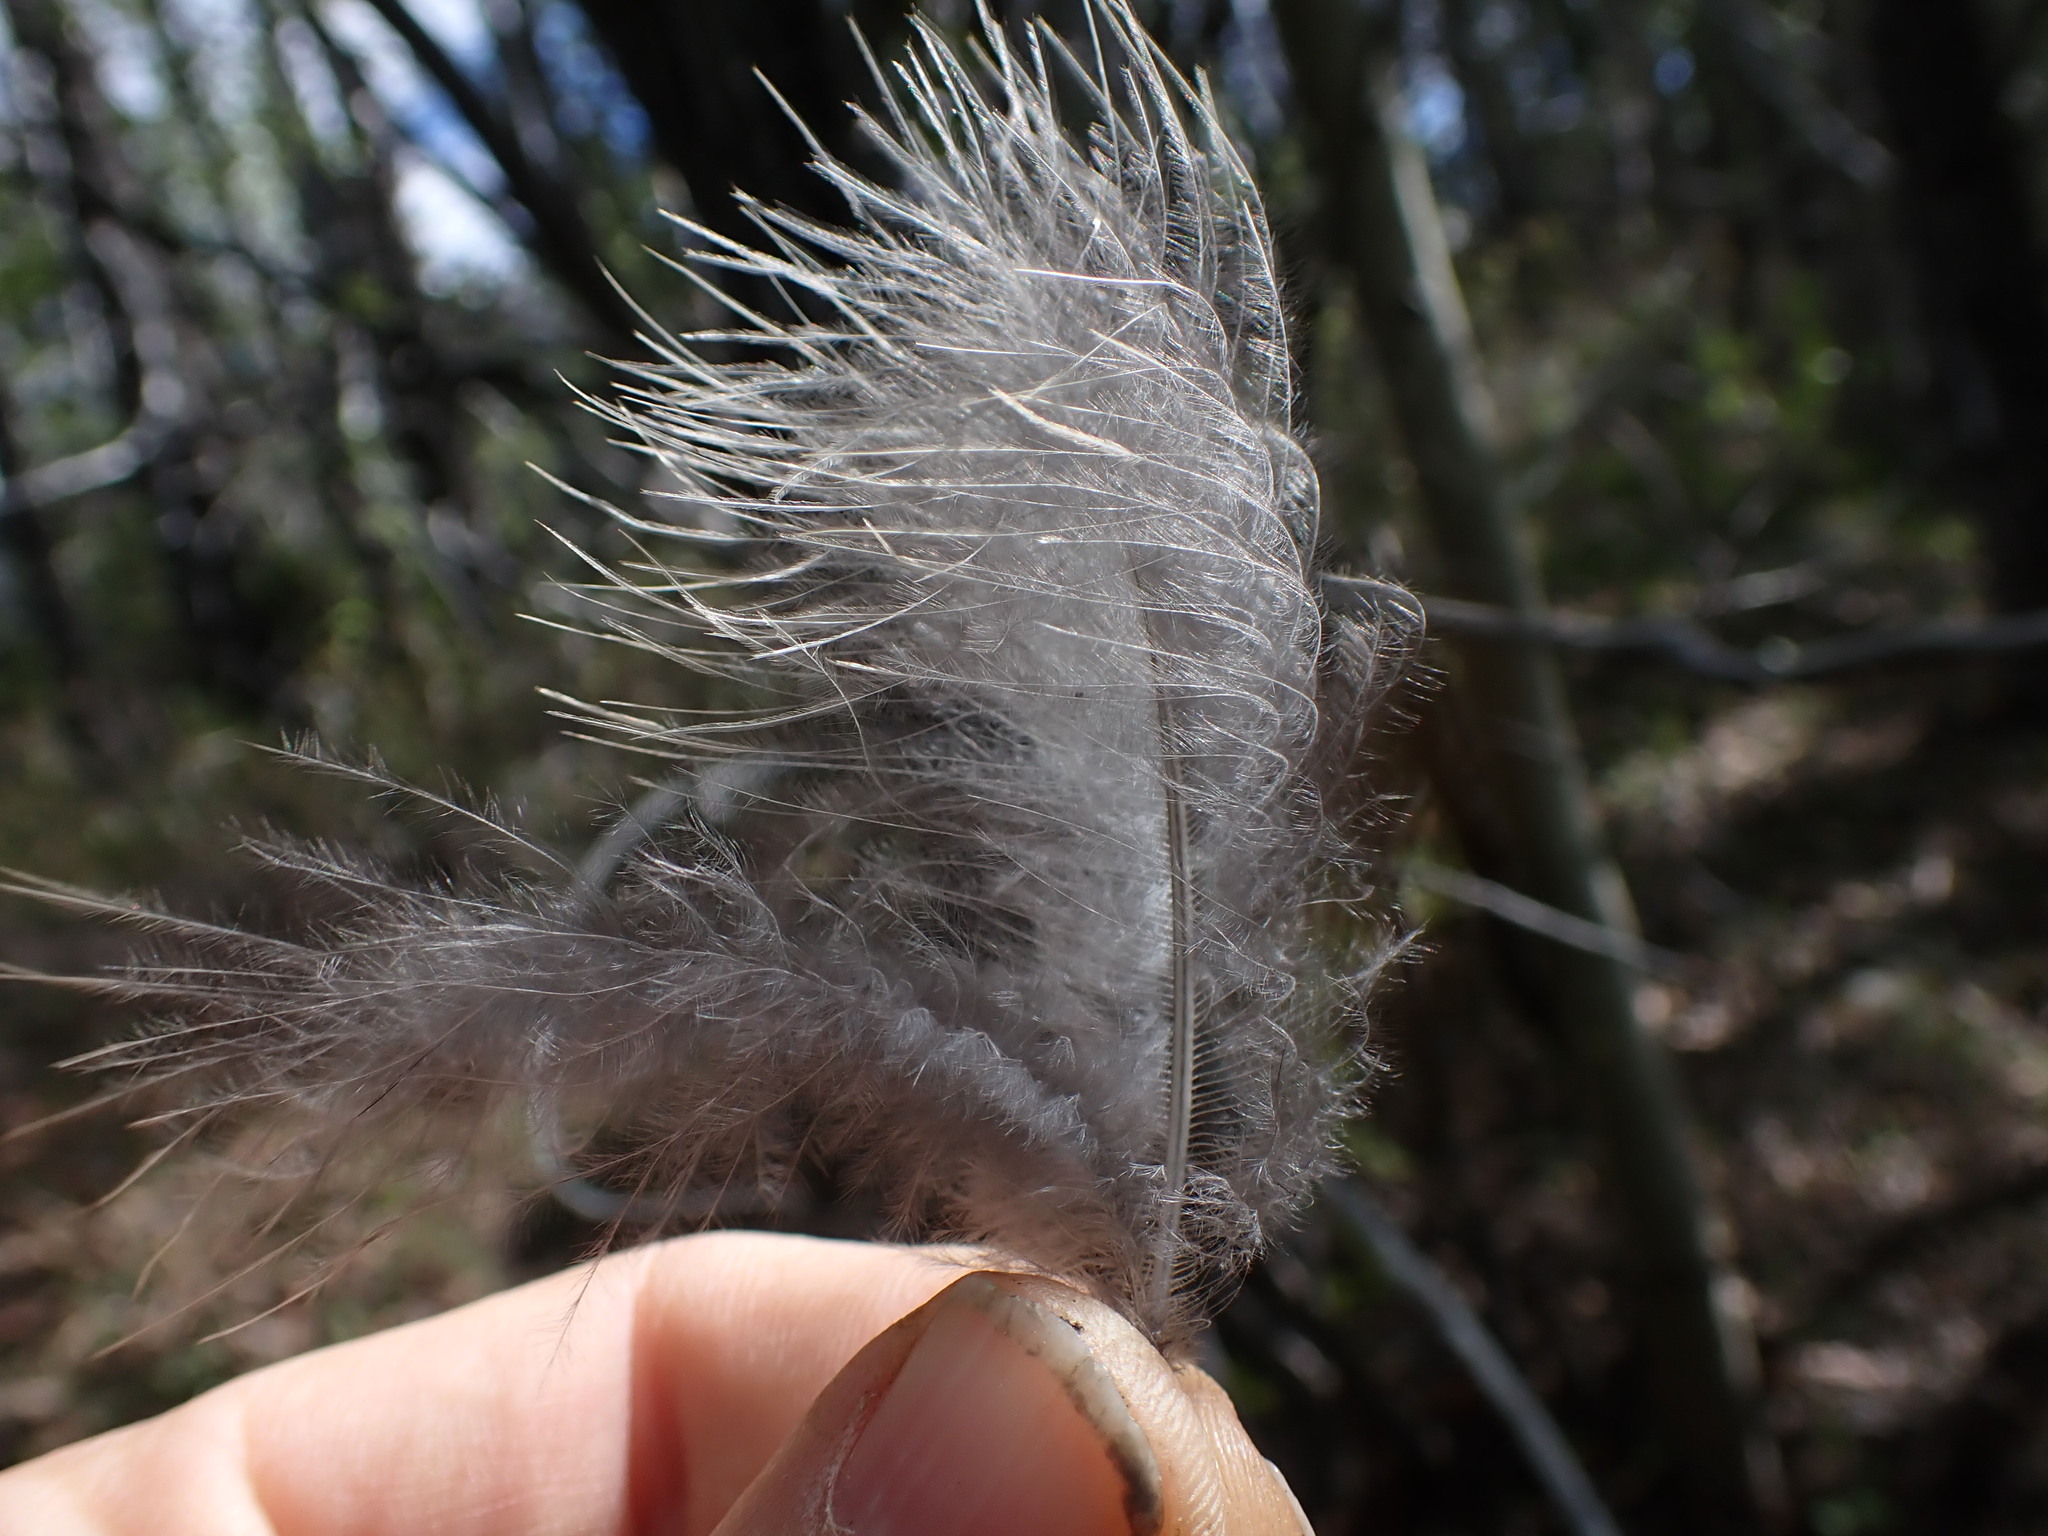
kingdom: Animalia
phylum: Chordata
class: Aves
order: Galliformes
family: Phasianidae
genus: Bonasa
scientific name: Bonasa umbellus
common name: Ruffed grouse
